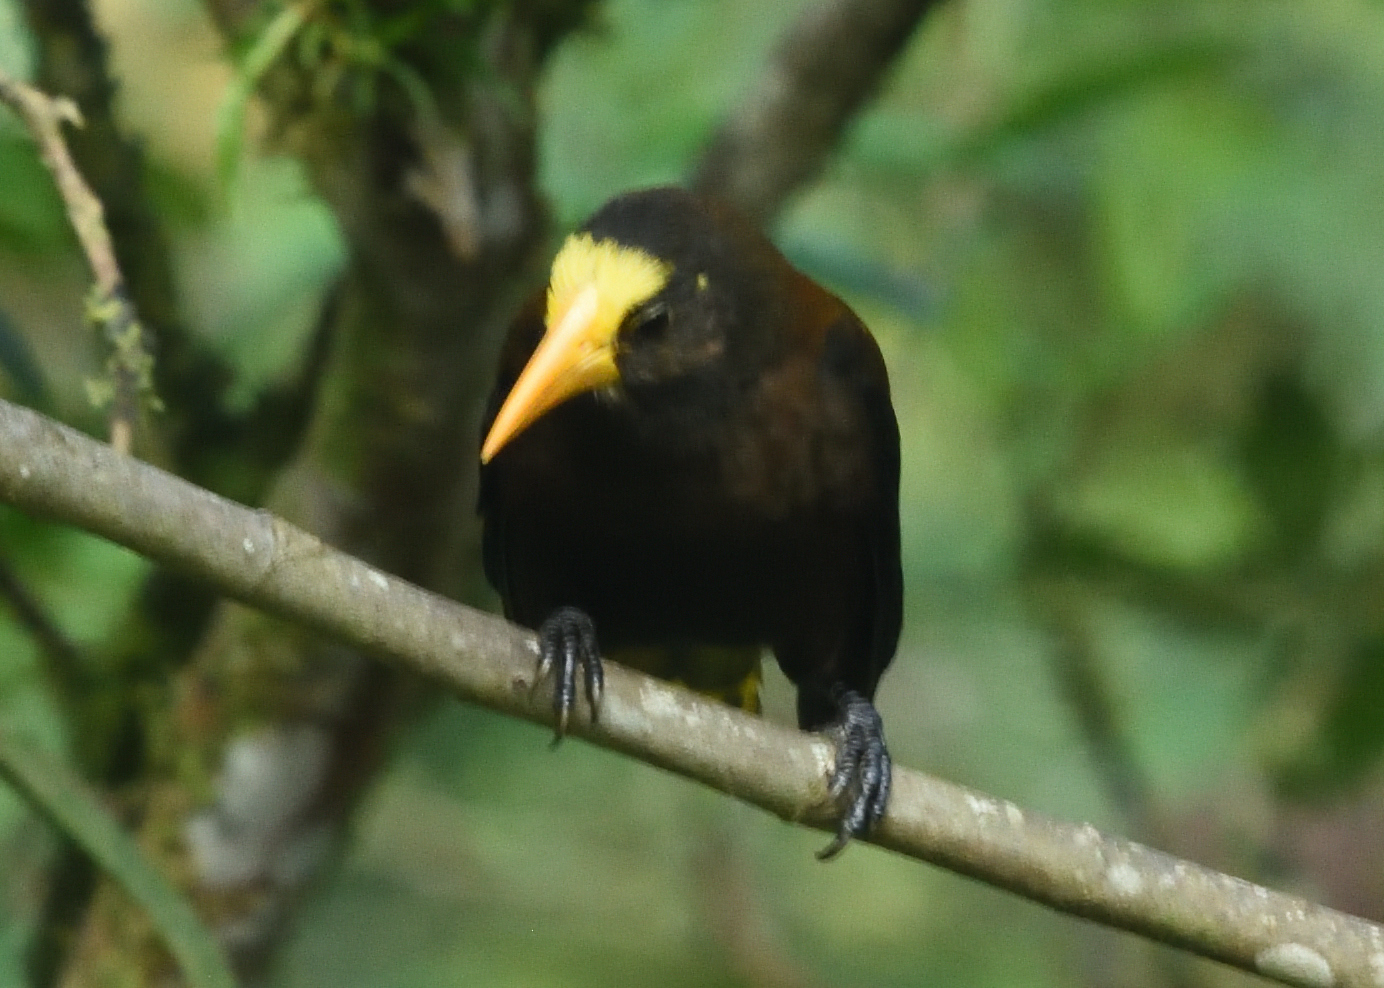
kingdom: Animalia
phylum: Chordata
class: Aves
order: Passeriformes
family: Icteridae
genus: Psarocolius
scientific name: Psarocolius angustifrons
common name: Russet-backed oropendola
